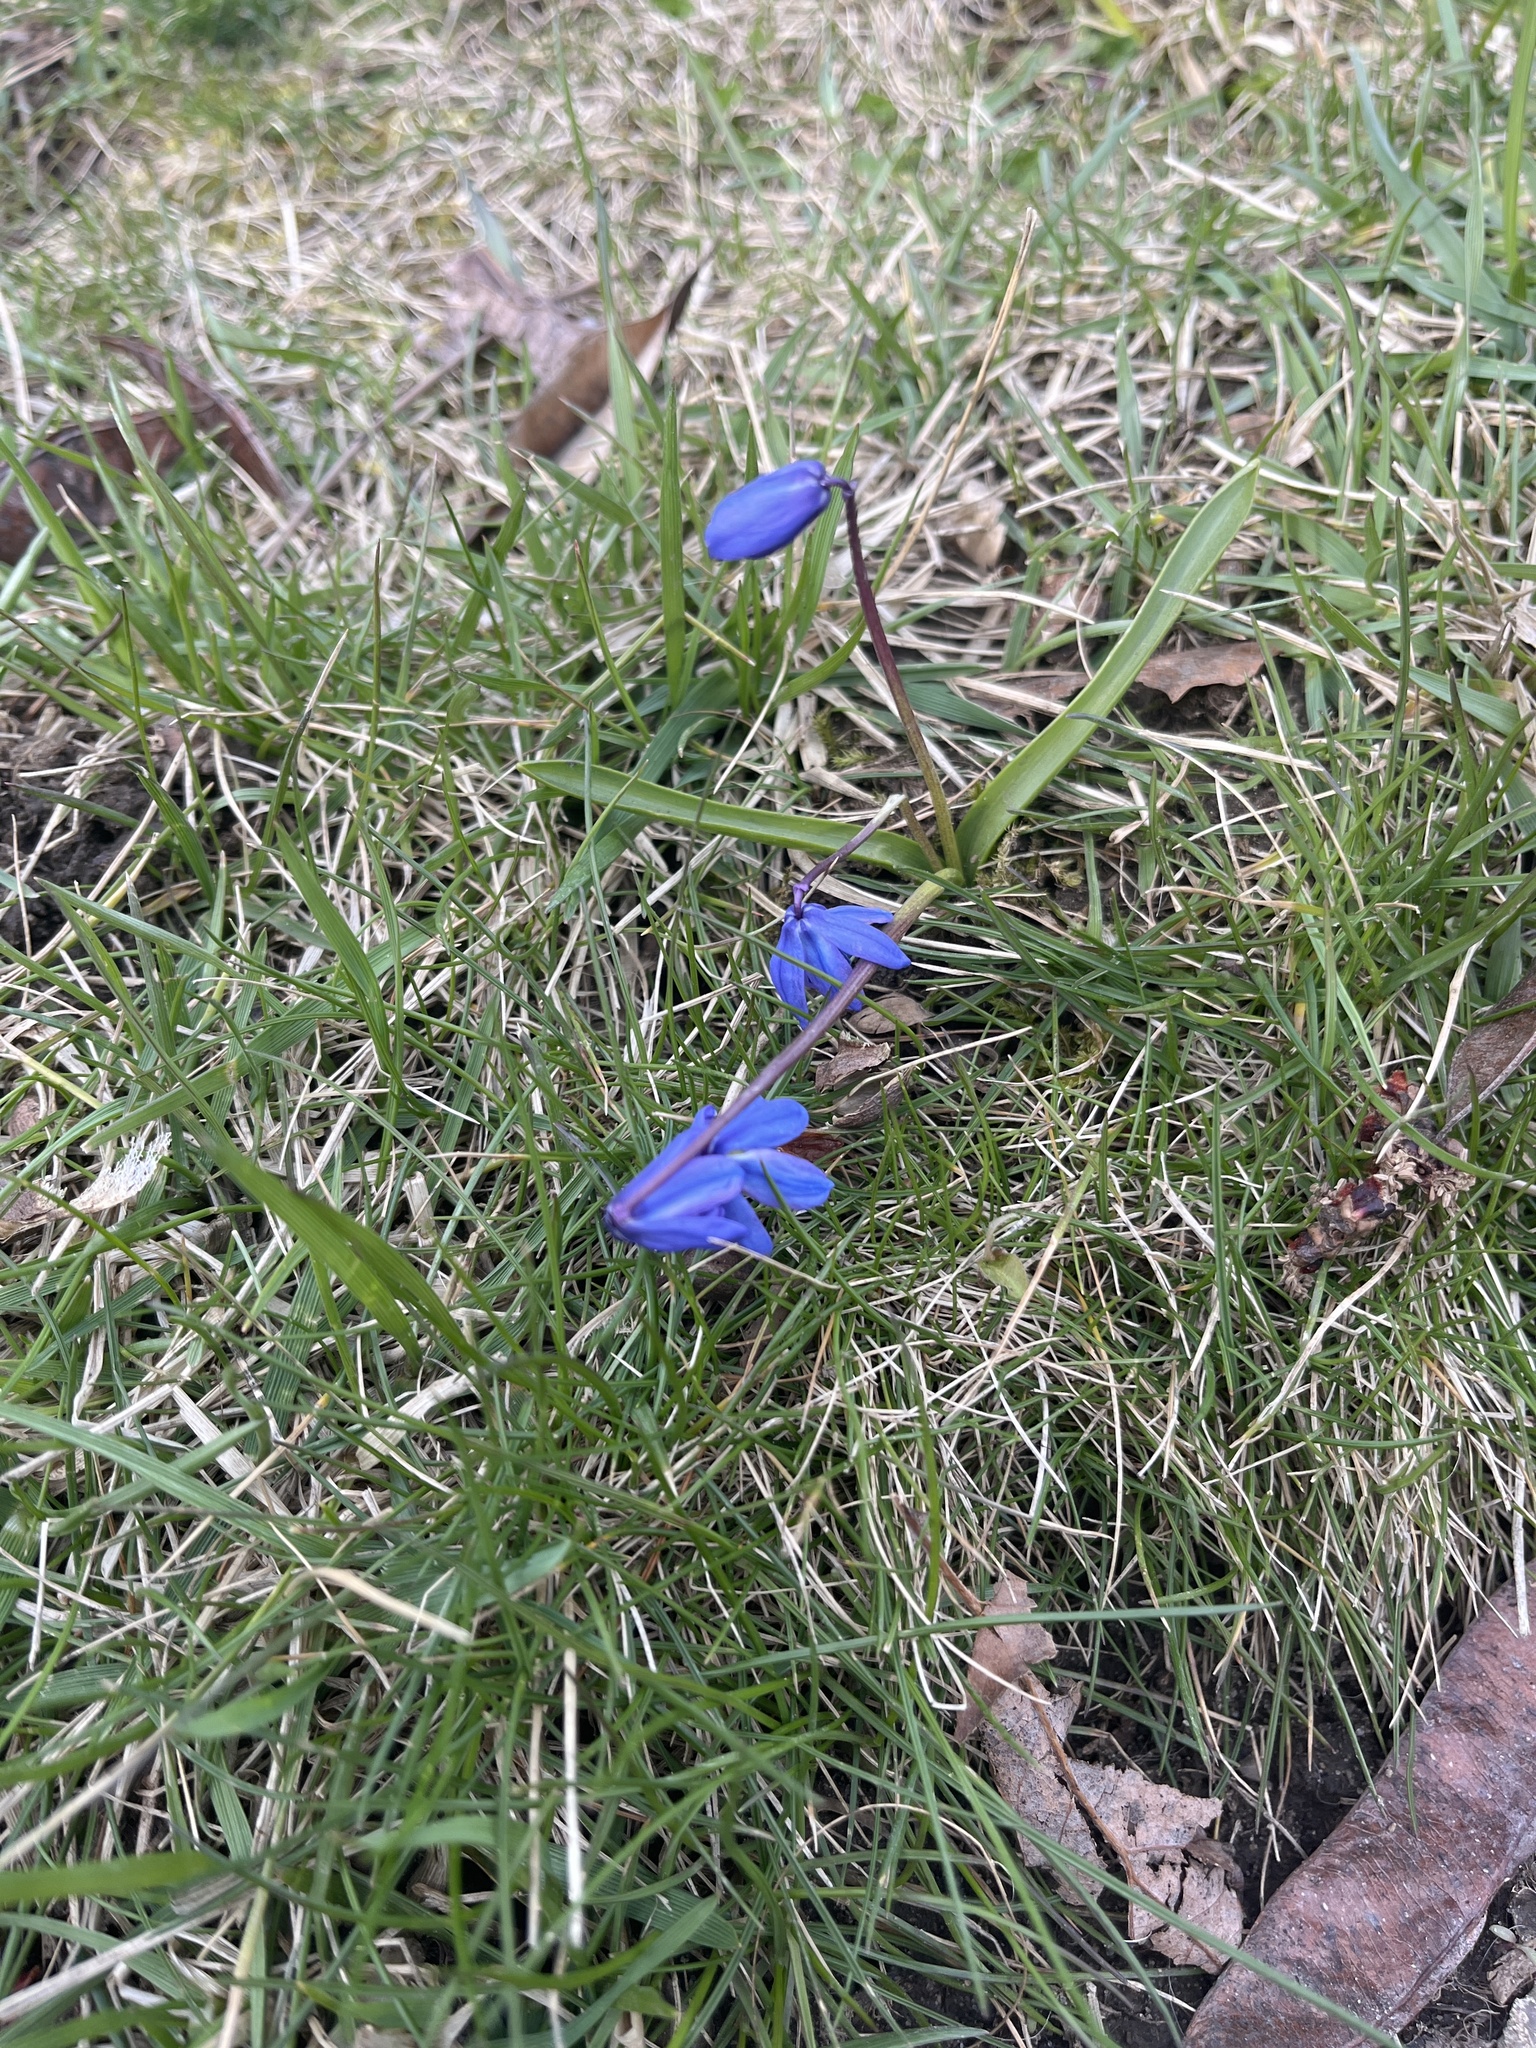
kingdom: Plantae
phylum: Tracheophyta
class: Liliopsida
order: Asparagales
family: Asparagaceae
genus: Scilla
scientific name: Scilla siberica
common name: Siberian squill
